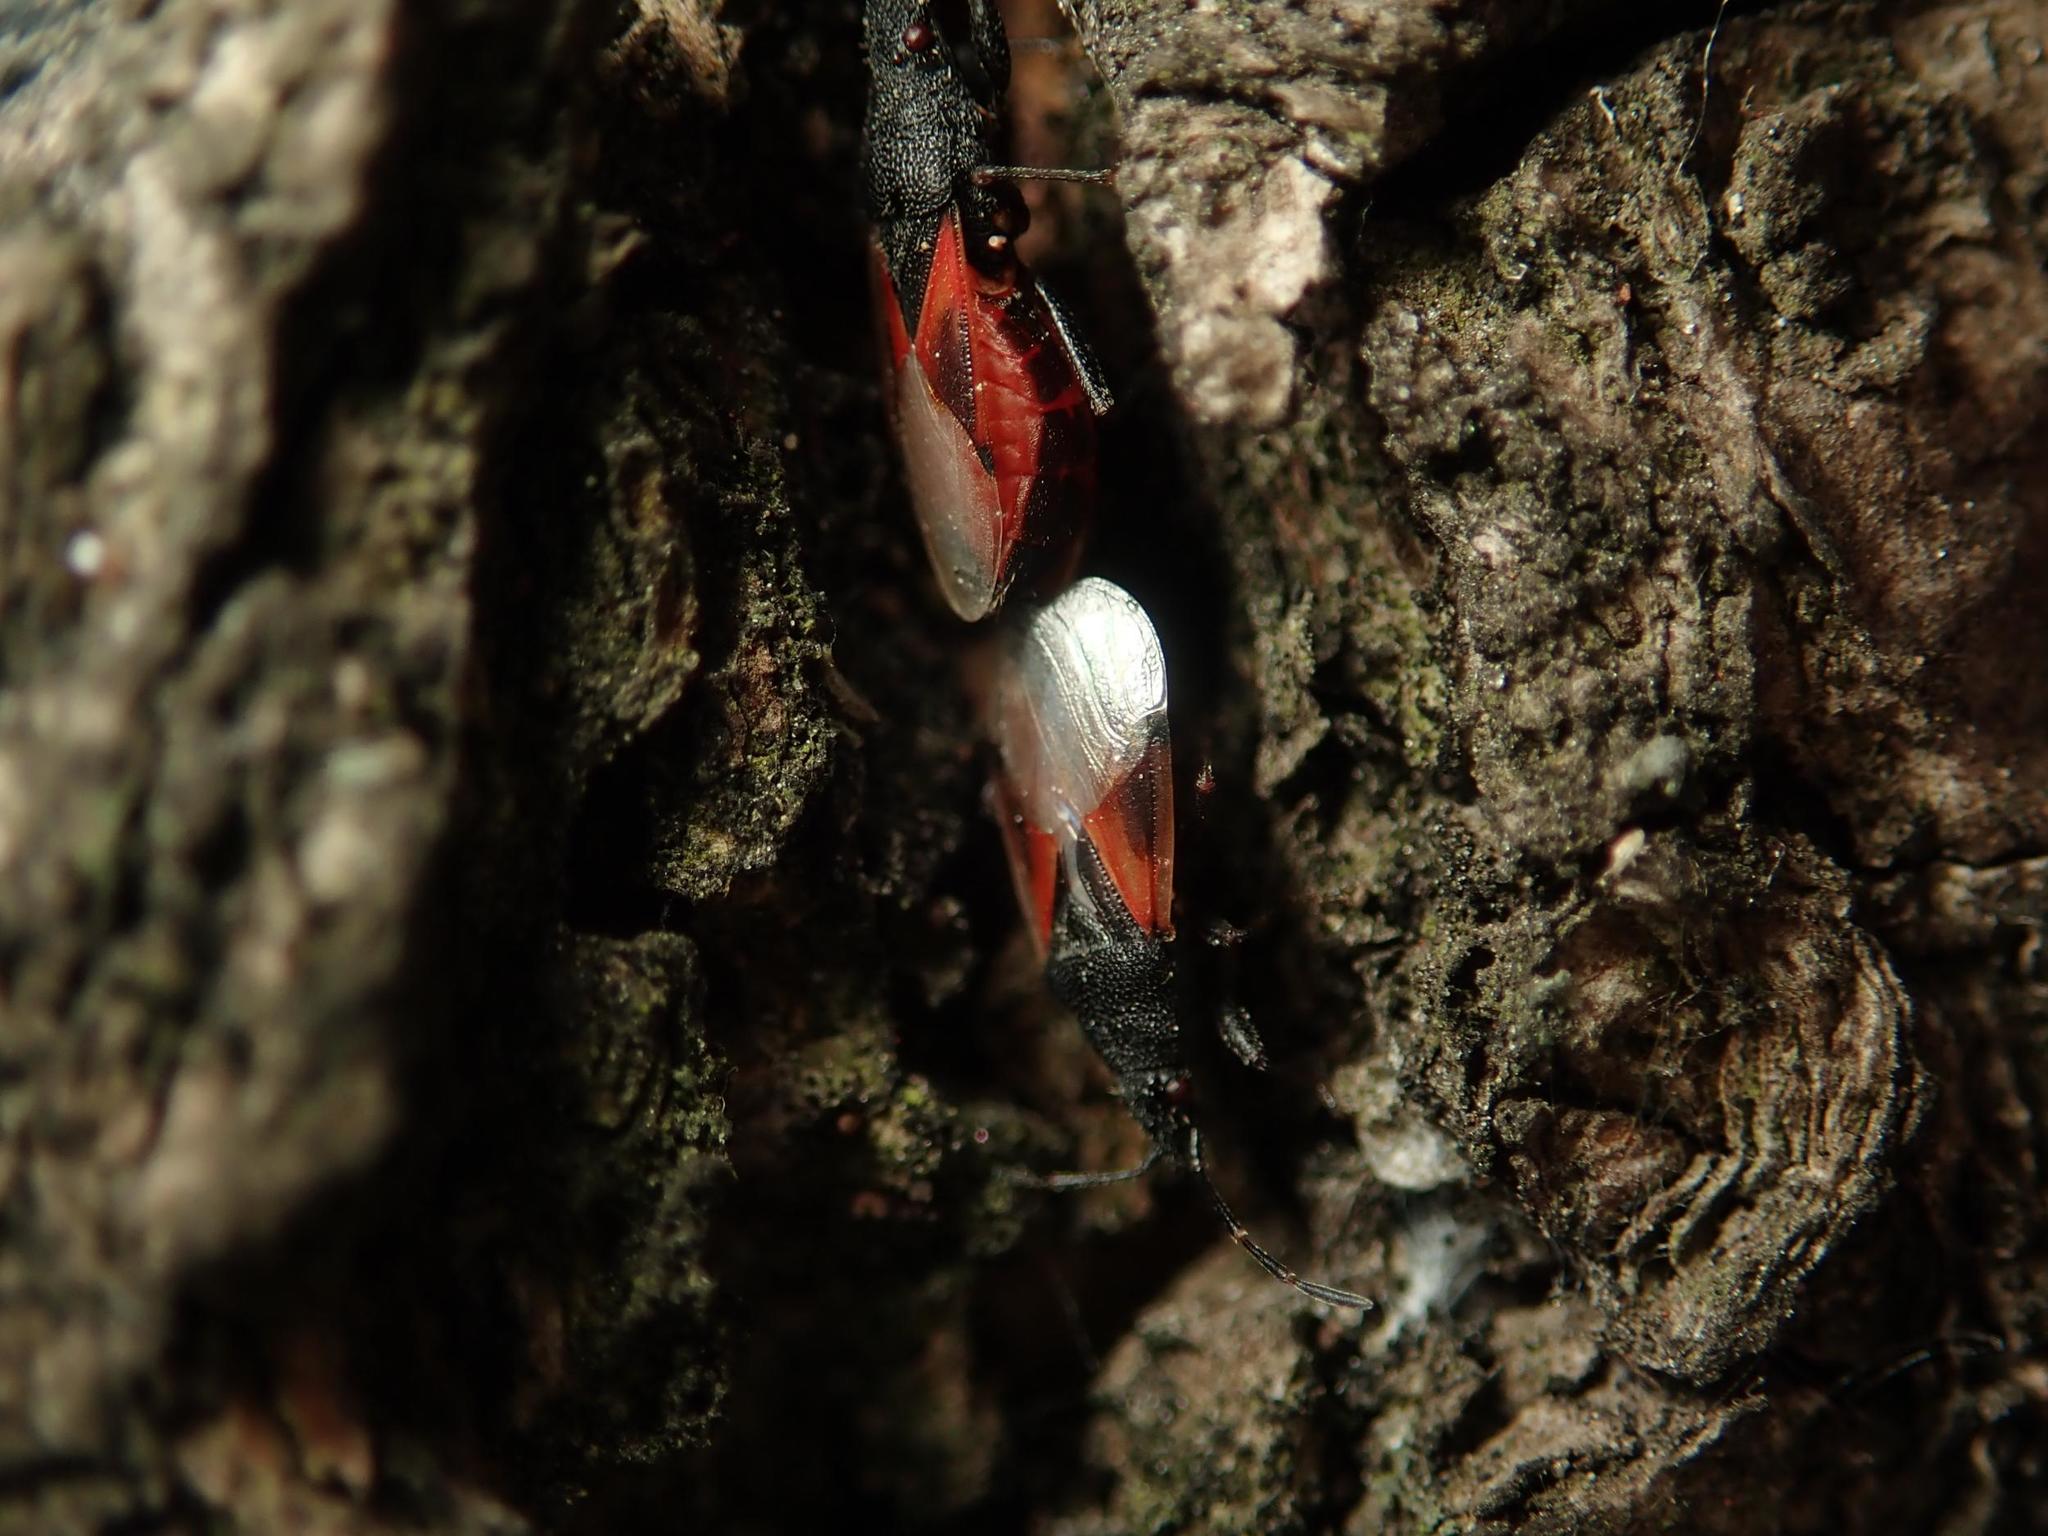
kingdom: Animalia
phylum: Arthropoda
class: Insecta
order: Hemiptera
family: Oxycarenidae
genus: Oxycarenus
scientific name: Oxycarenus lavaterae
